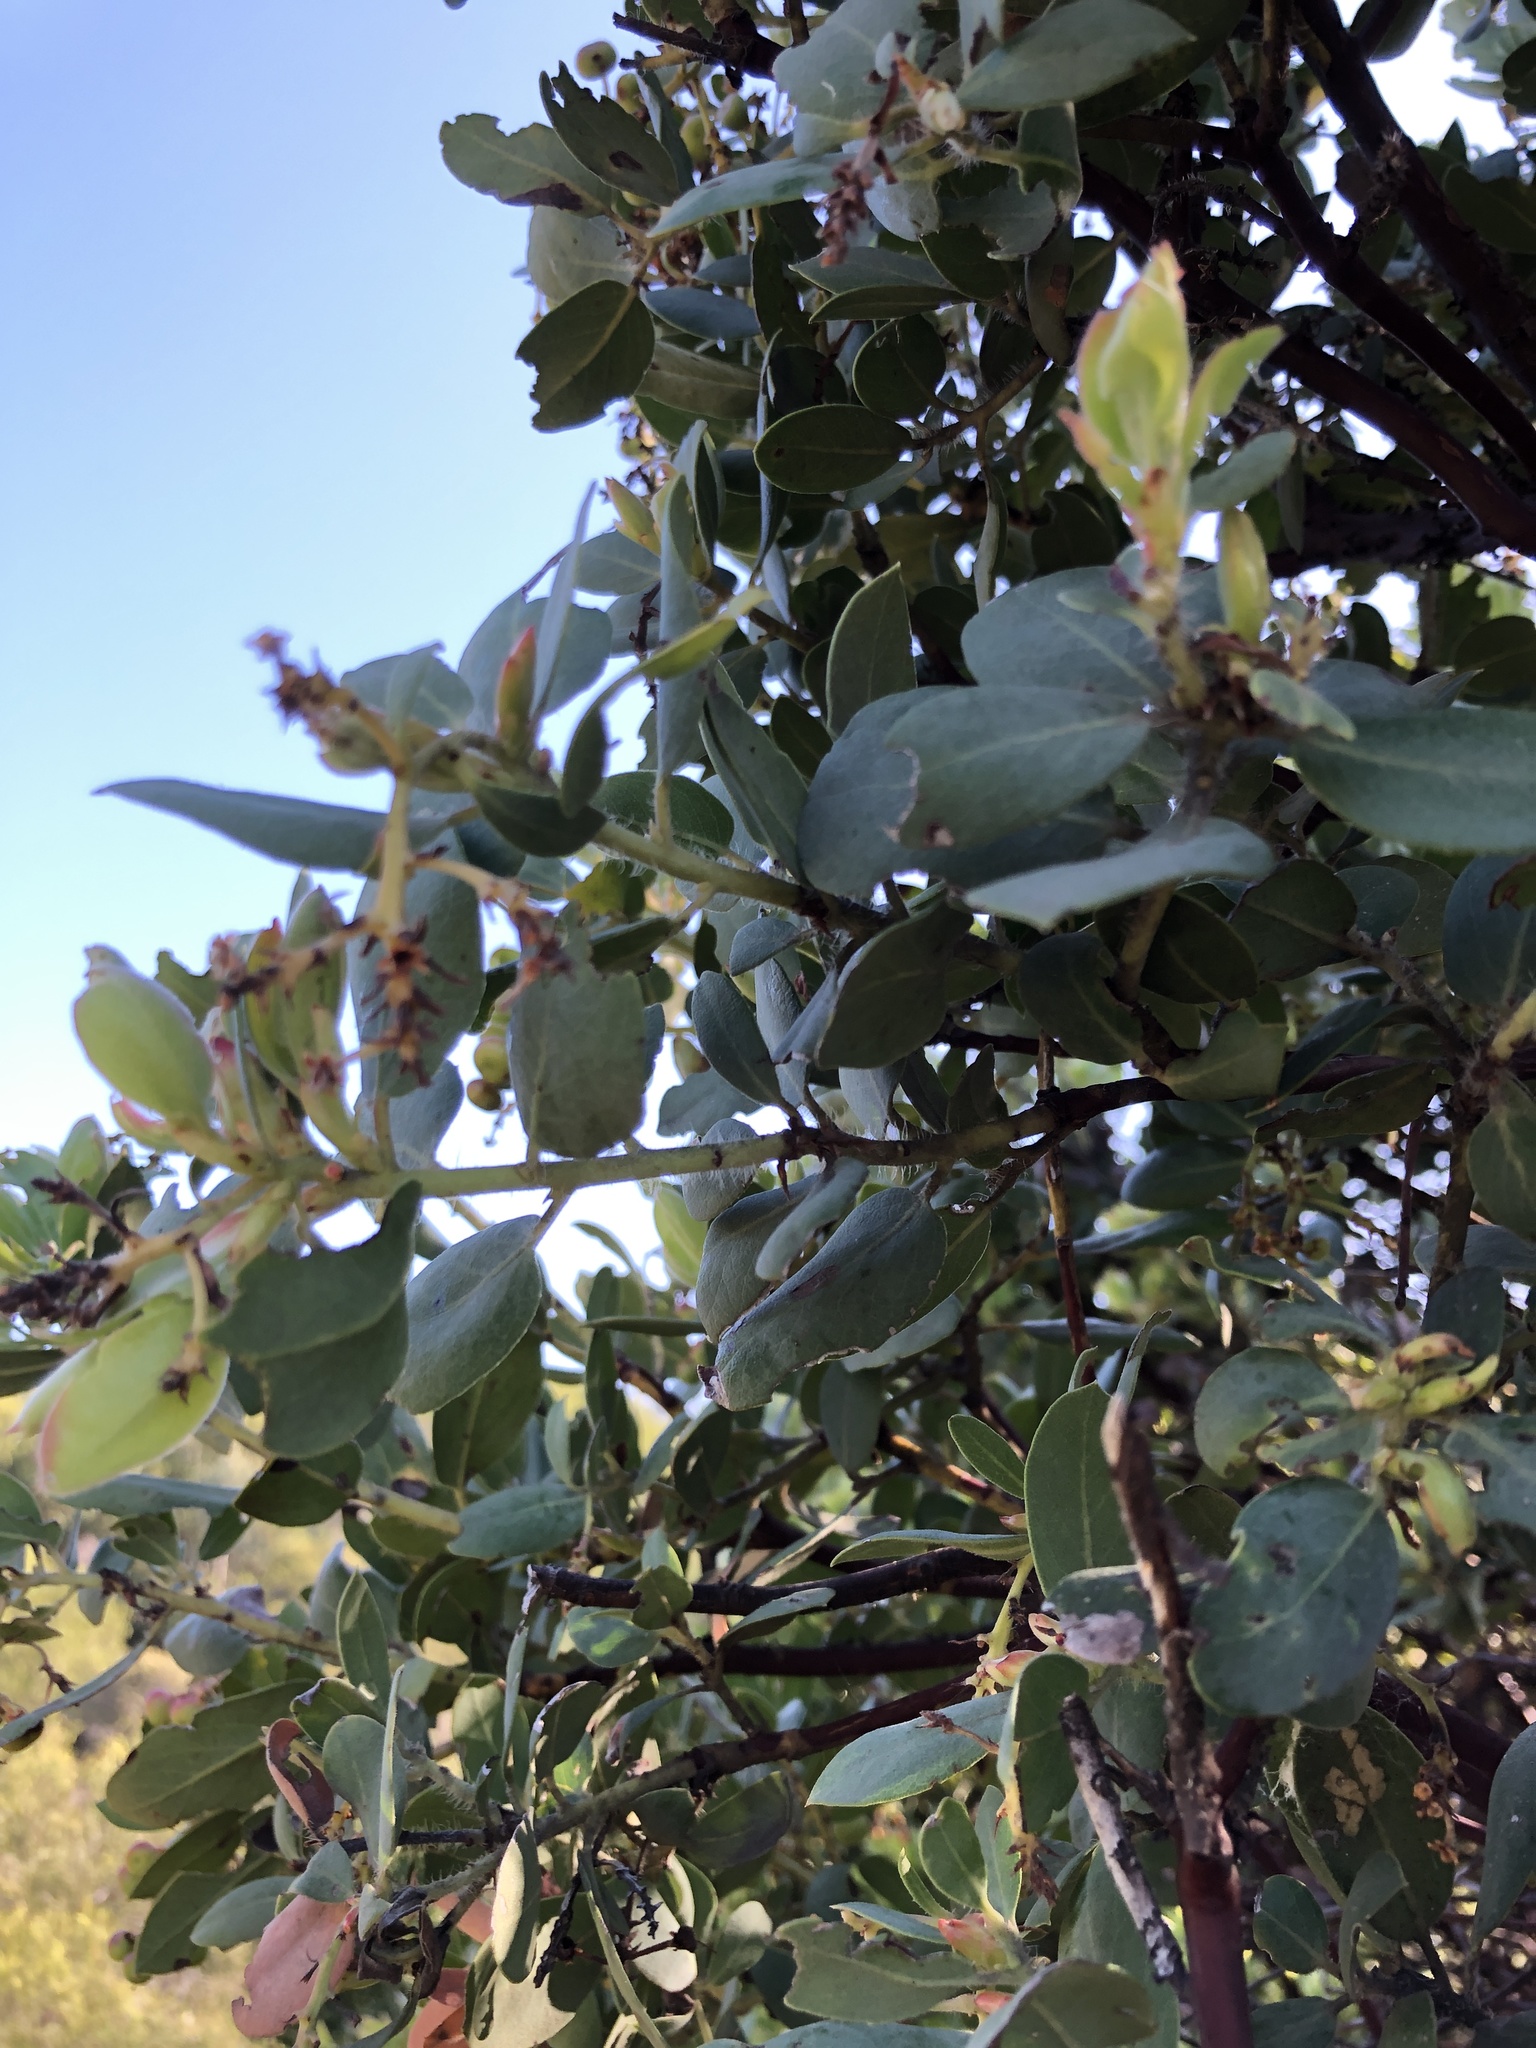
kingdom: Plantae
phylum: Tracheophyta
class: Magnoliopsida
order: Ericales
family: Ericaceae
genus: Arctostaphylos
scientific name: Arctostaphylos crustacea
